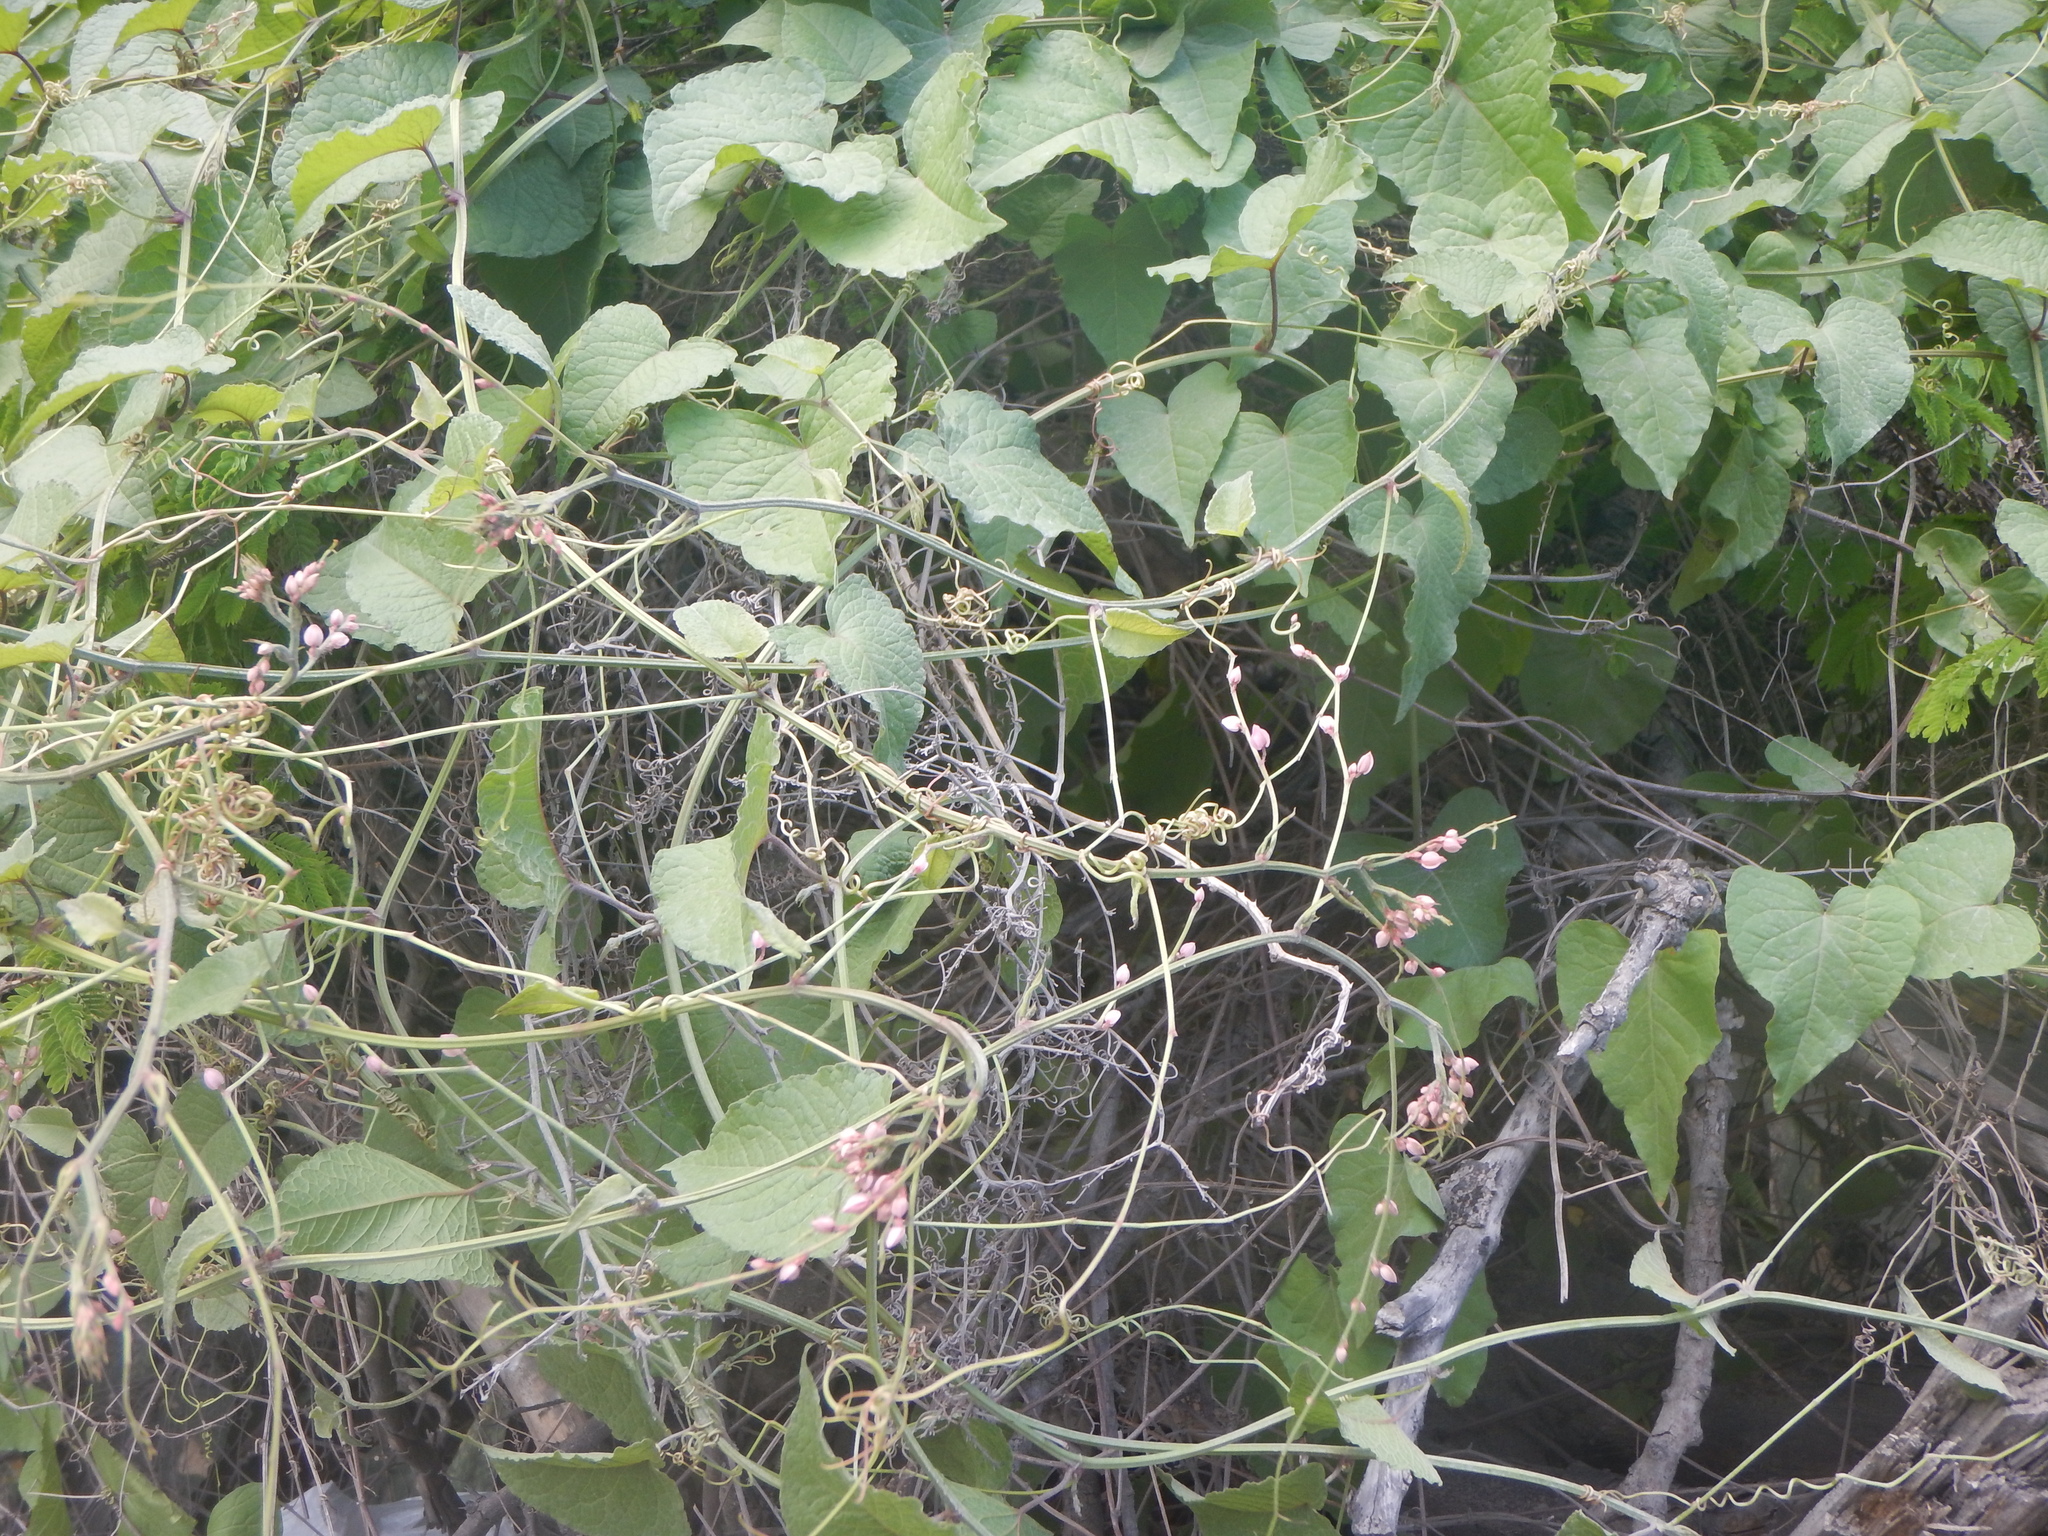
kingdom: Plantae
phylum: Tracheophyta
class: Magnoliopsida
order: Caryophyllales
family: Polygonaceae
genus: Antigonon
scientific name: Antigonon leptopus
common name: Coral vine
